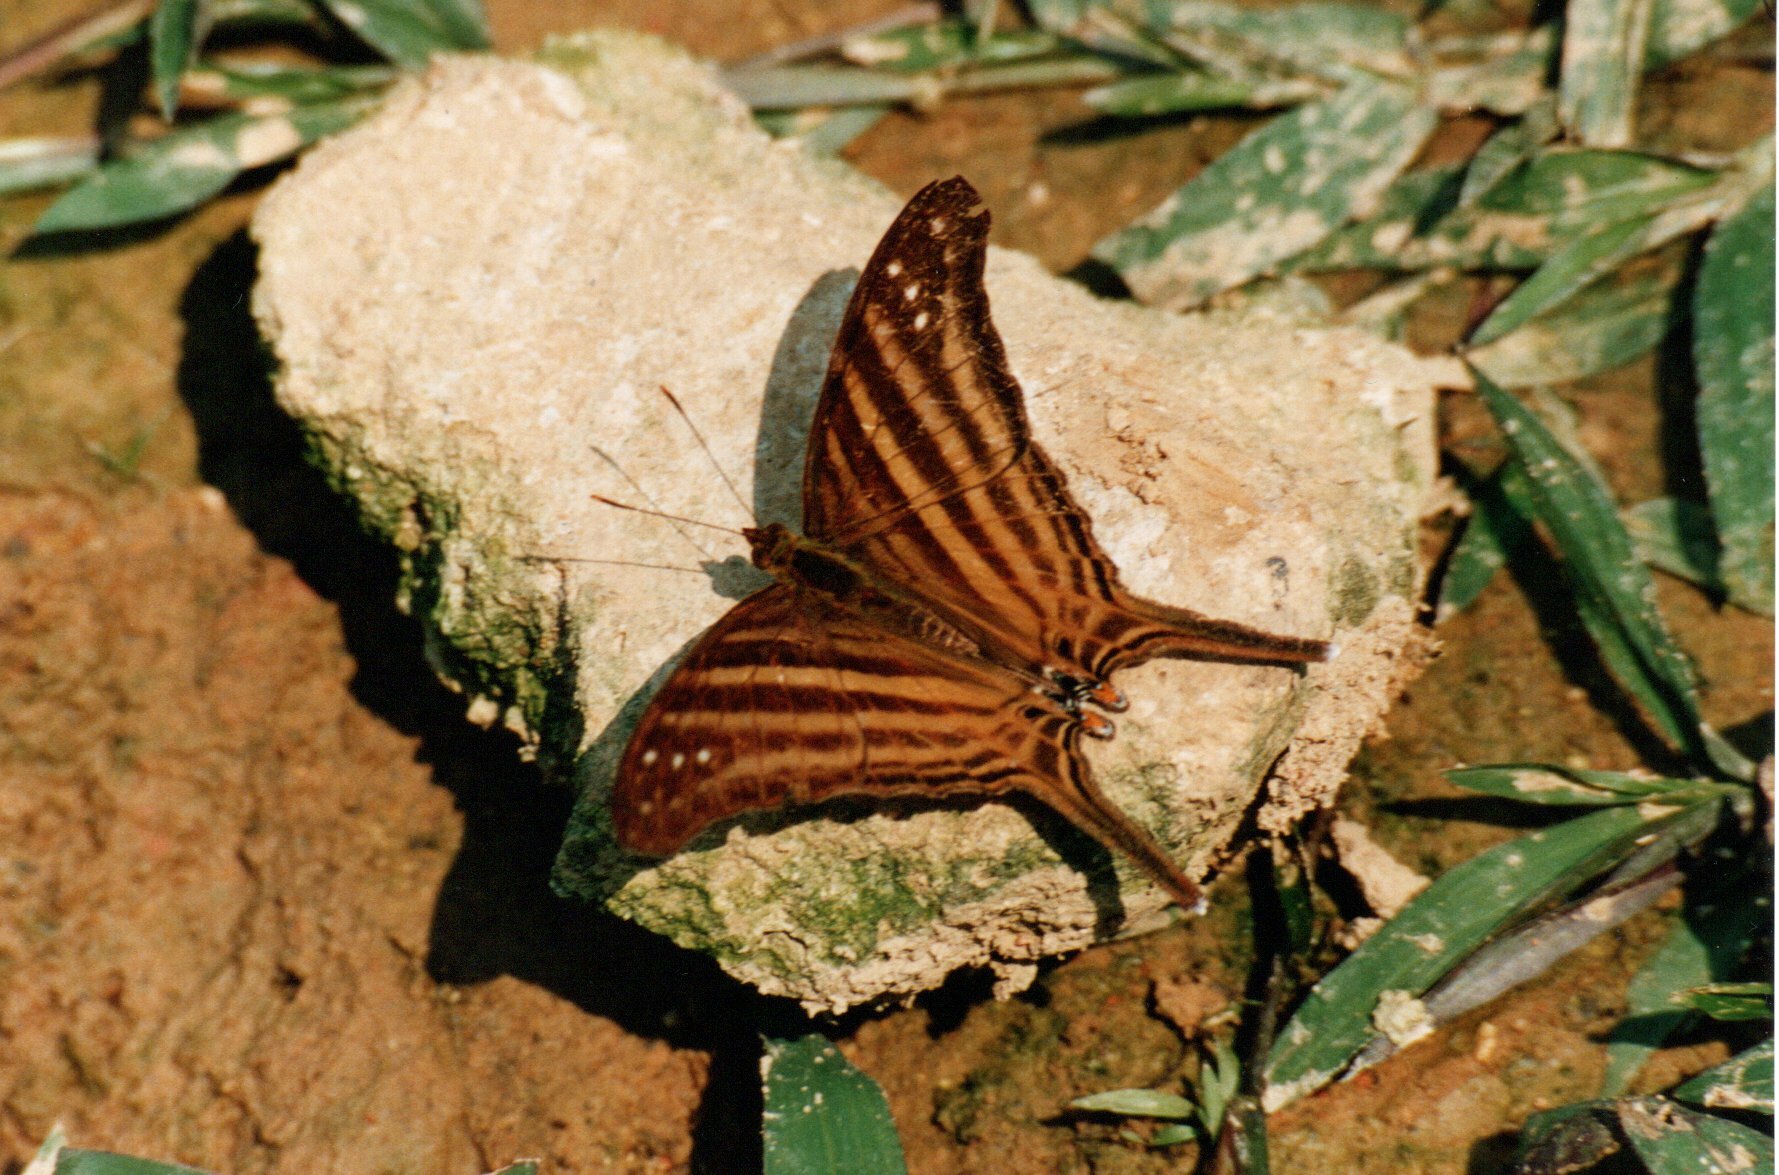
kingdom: Animalia
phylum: Arthropoda
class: Insecta
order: Lepidoptera
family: Nymphalidae
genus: Marpesia
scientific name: Marpesia chiron
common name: Many-banded daggerwing
